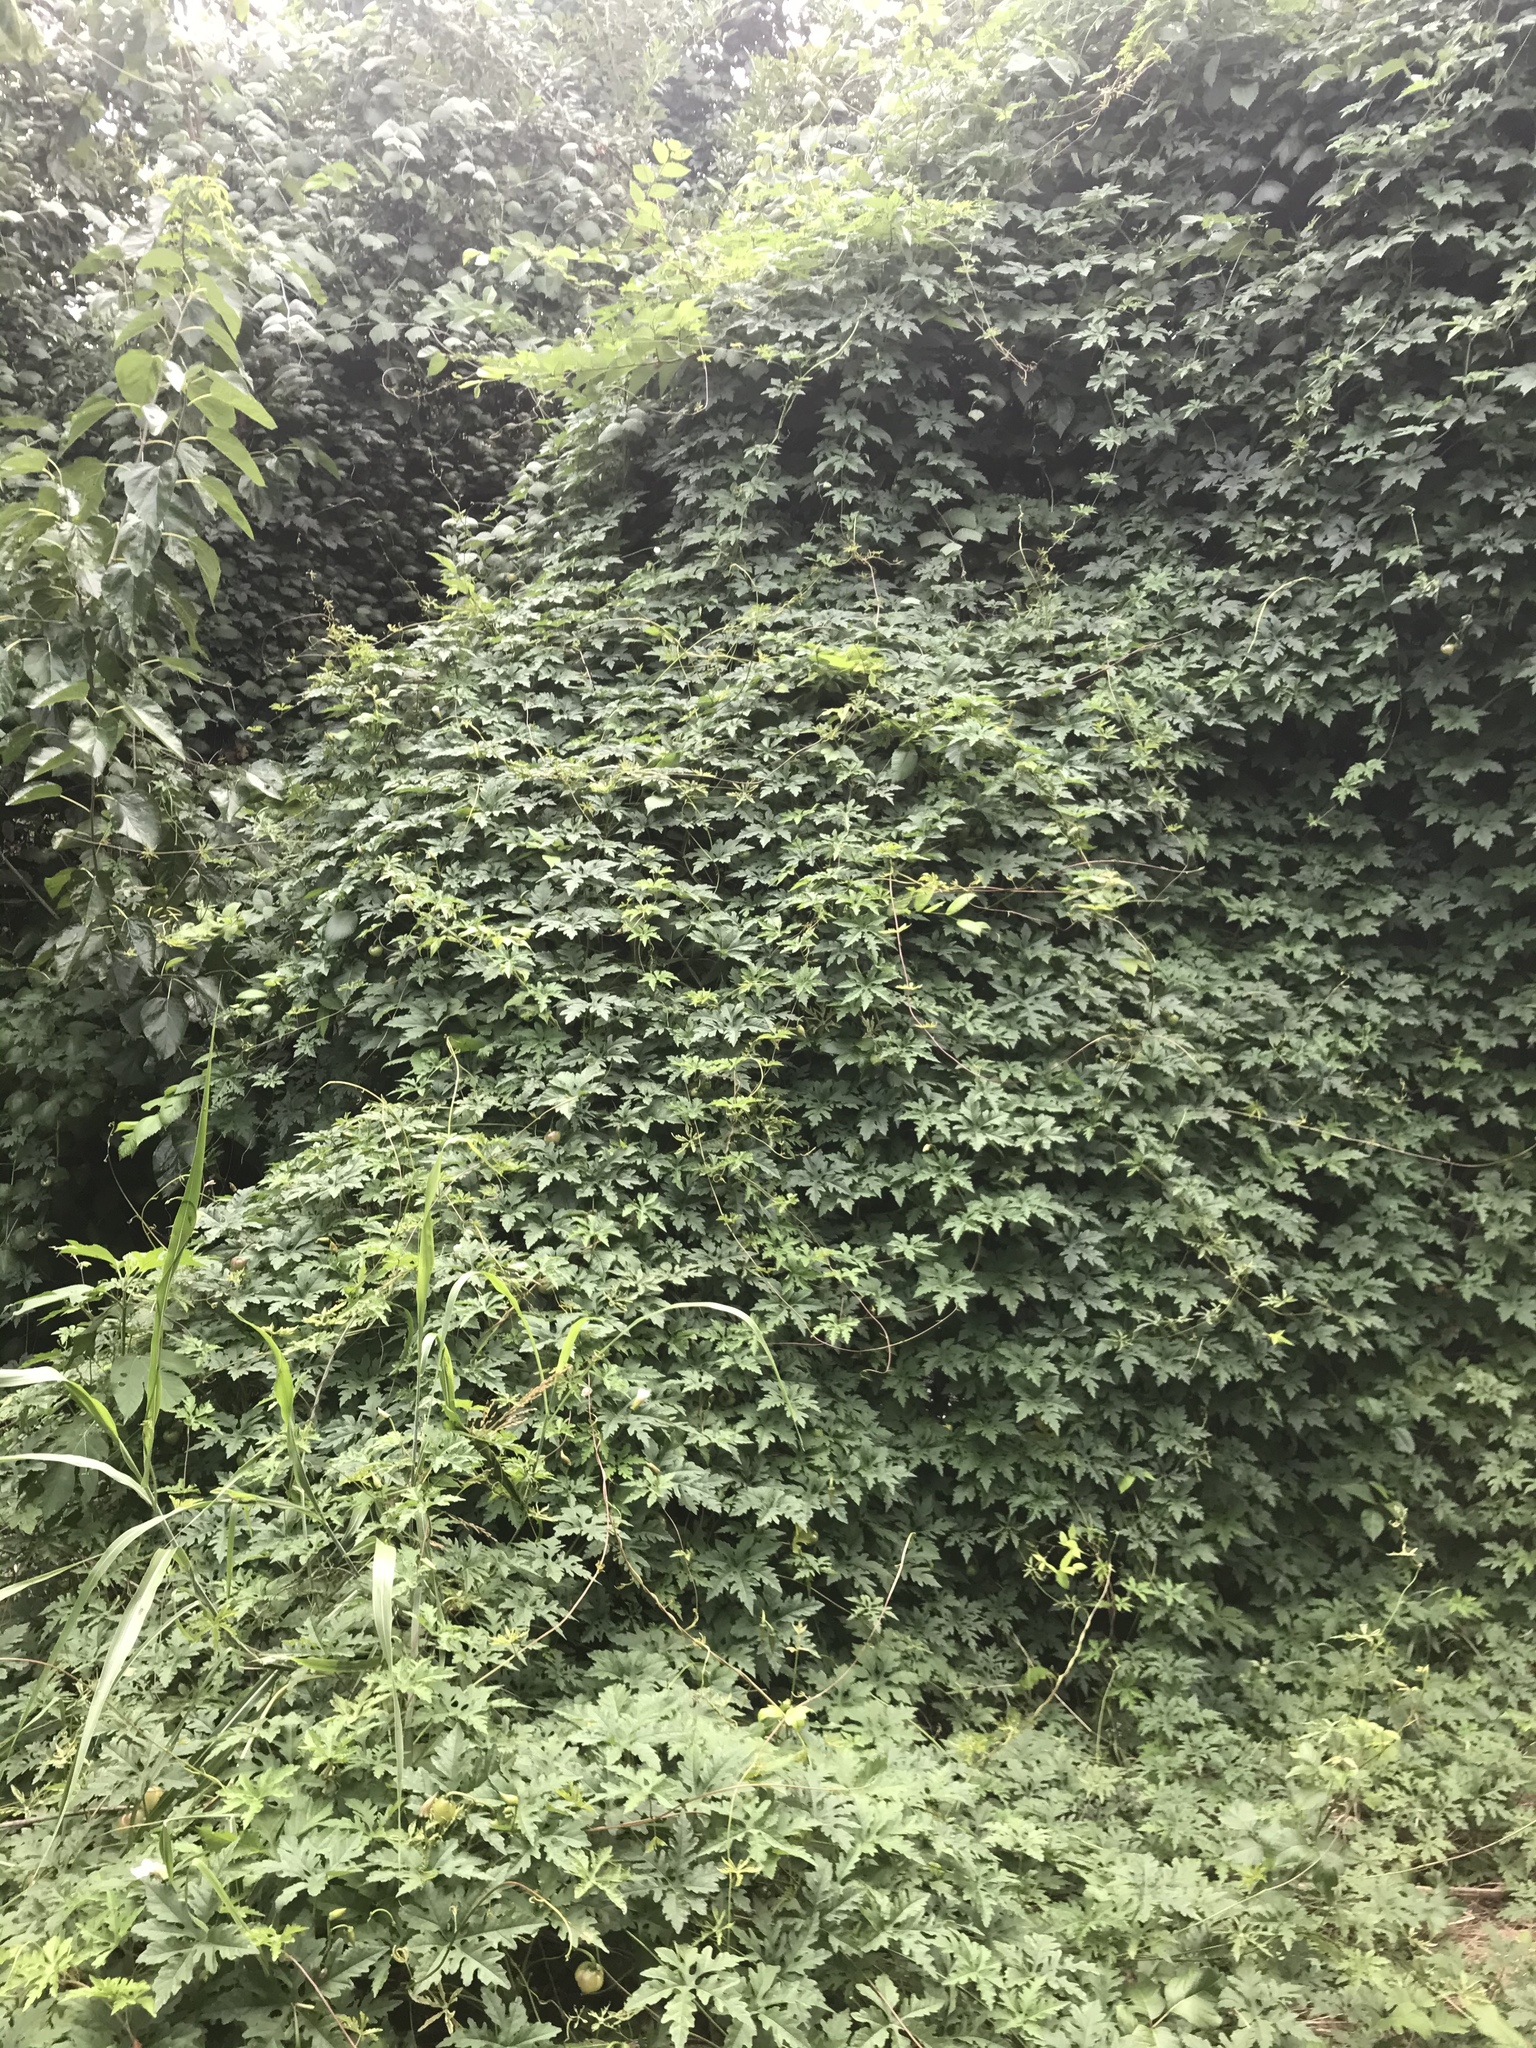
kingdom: Plantae
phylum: Tracheophyta
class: Magnoliopsida
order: Solanales
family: Convolvulaceae
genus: Distimake
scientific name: Distimake dissectus
